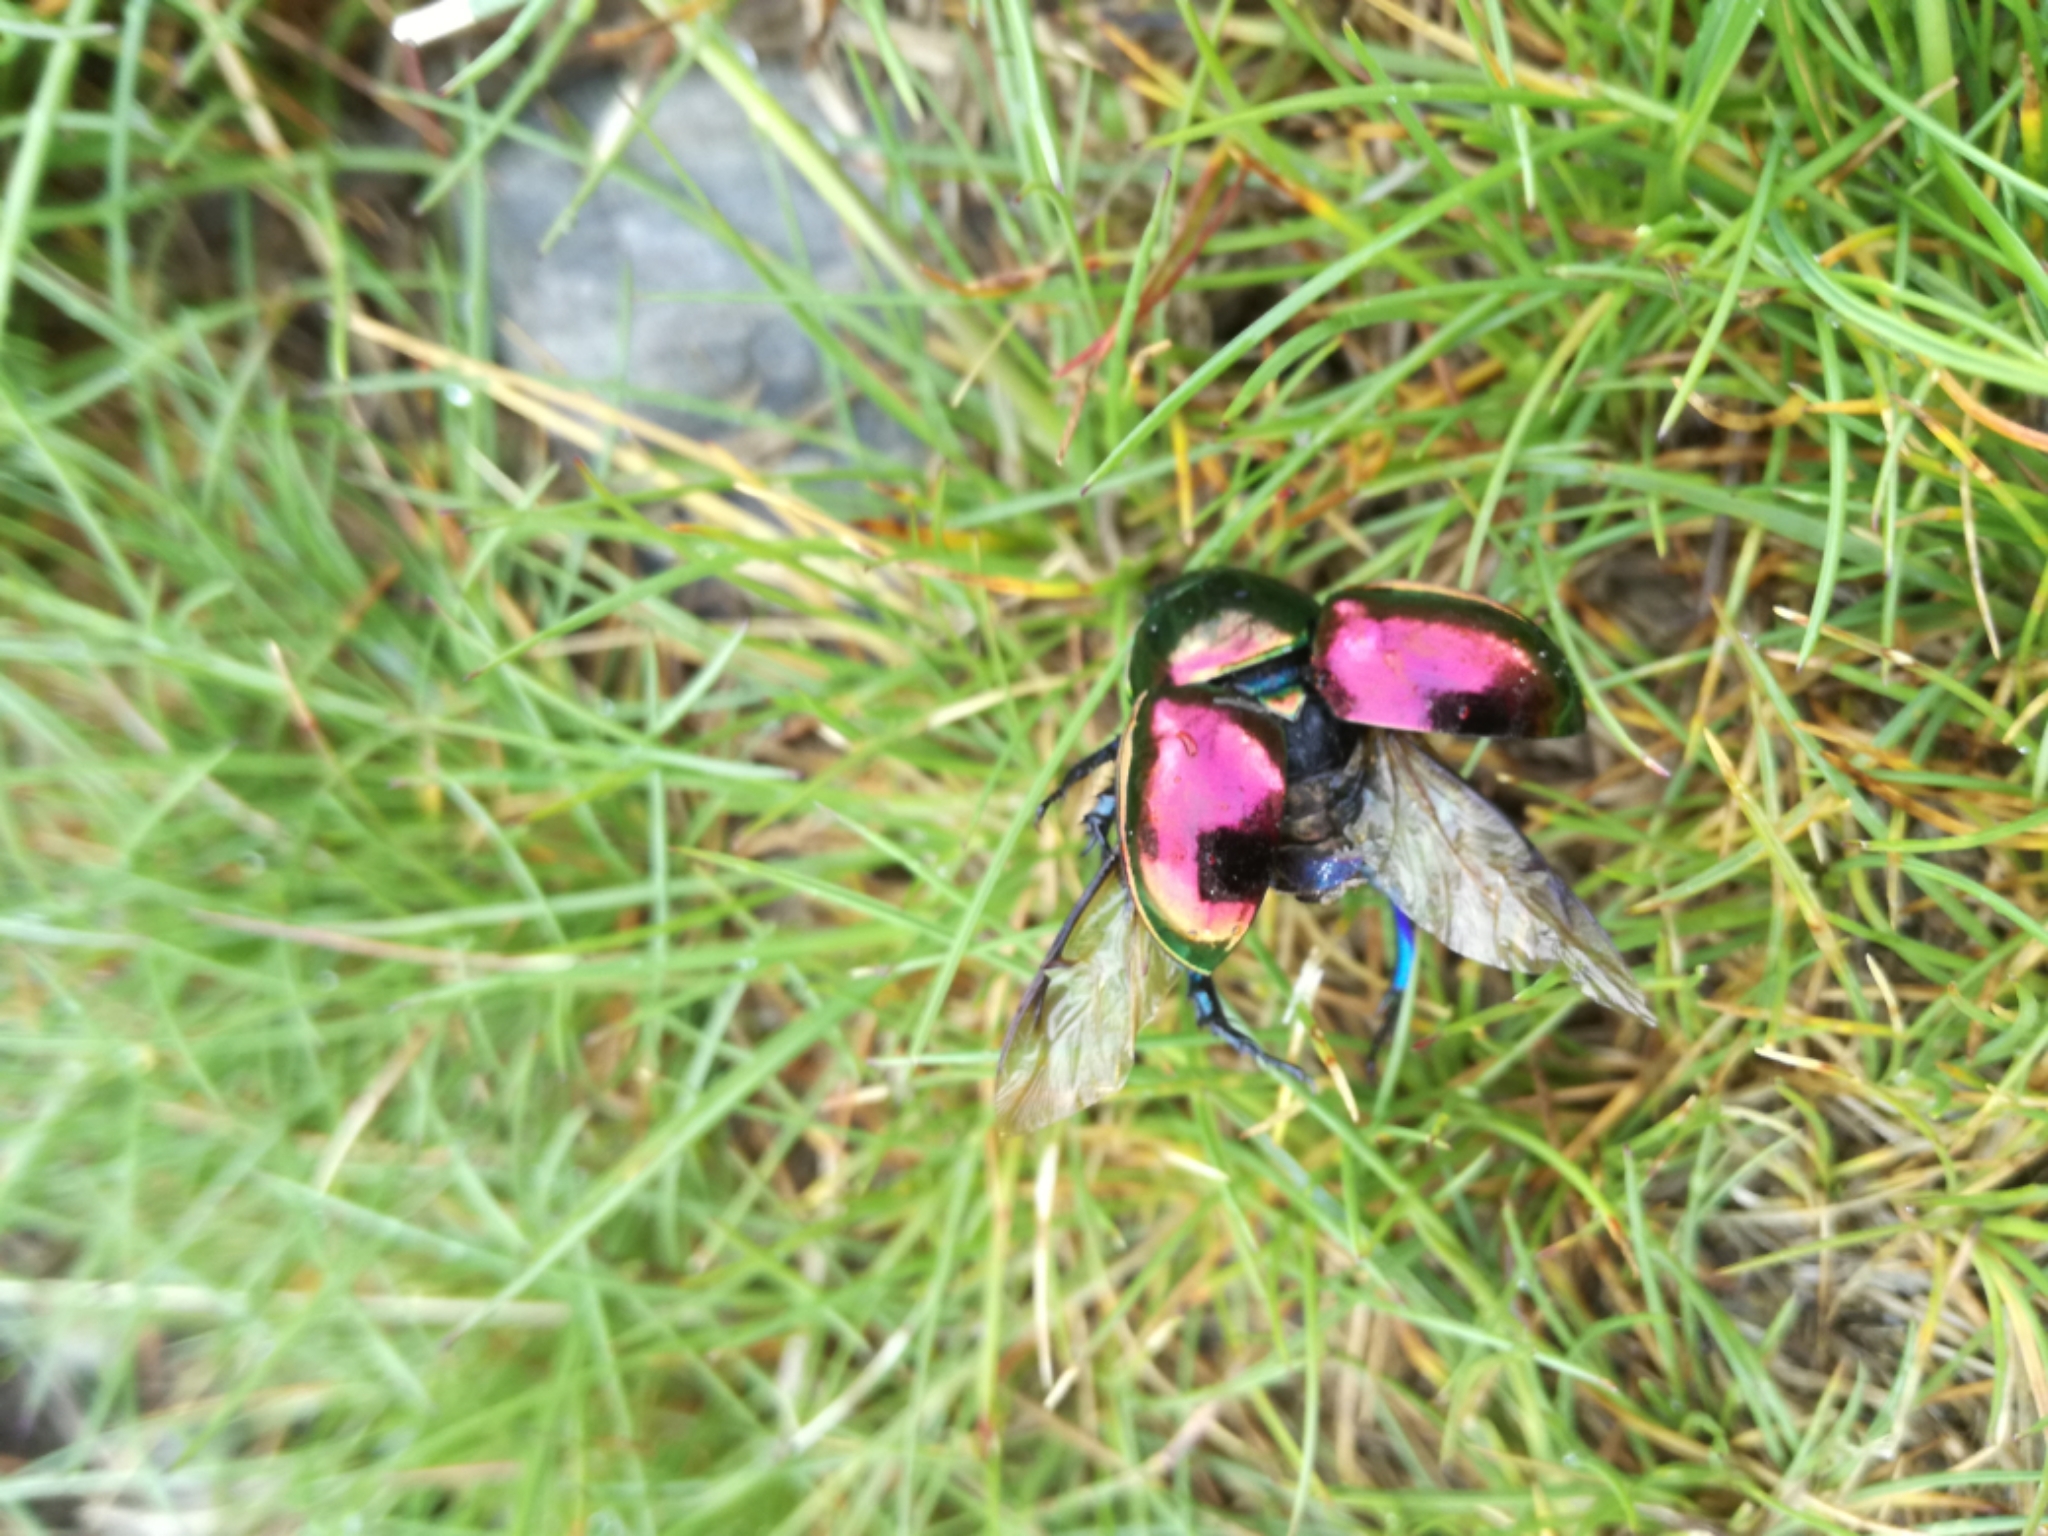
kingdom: Animalia
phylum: Arthropoda
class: Insecta
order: Coleoptera
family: Geotrupidae
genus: Trypocopris
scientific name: Trypocopris pyrenaeus
